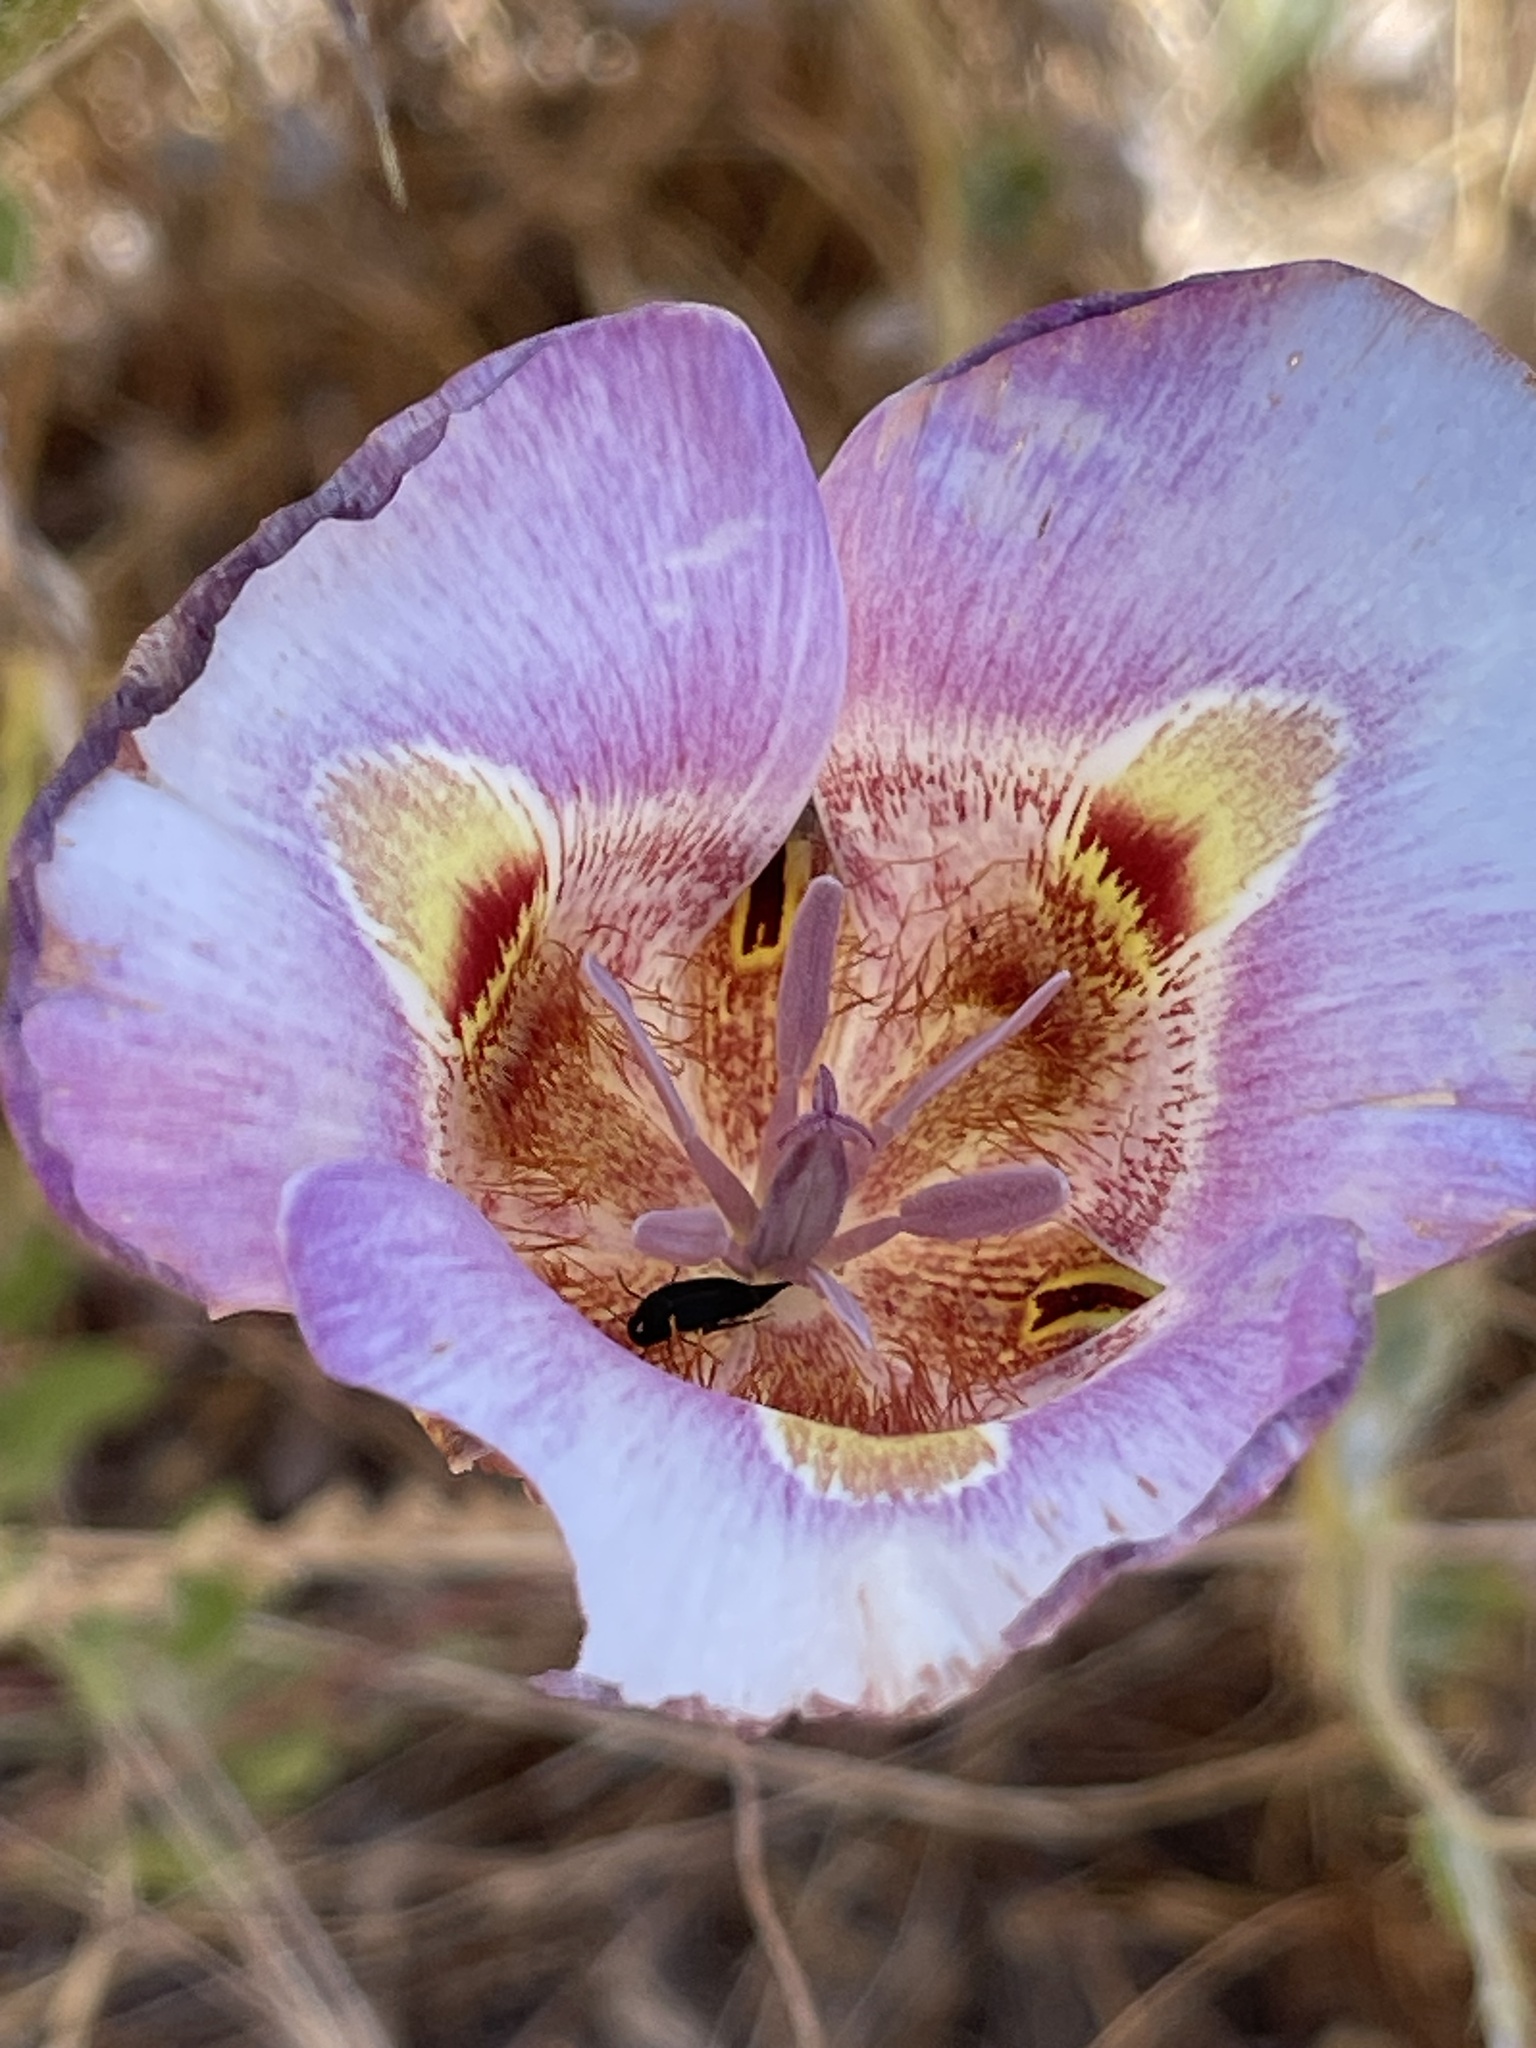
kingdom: Plantae
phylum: Tracheophyta
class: Liliopsida
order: Liliales
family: Liliaceae
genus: Calochortus
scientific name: Calochortus argillosus
